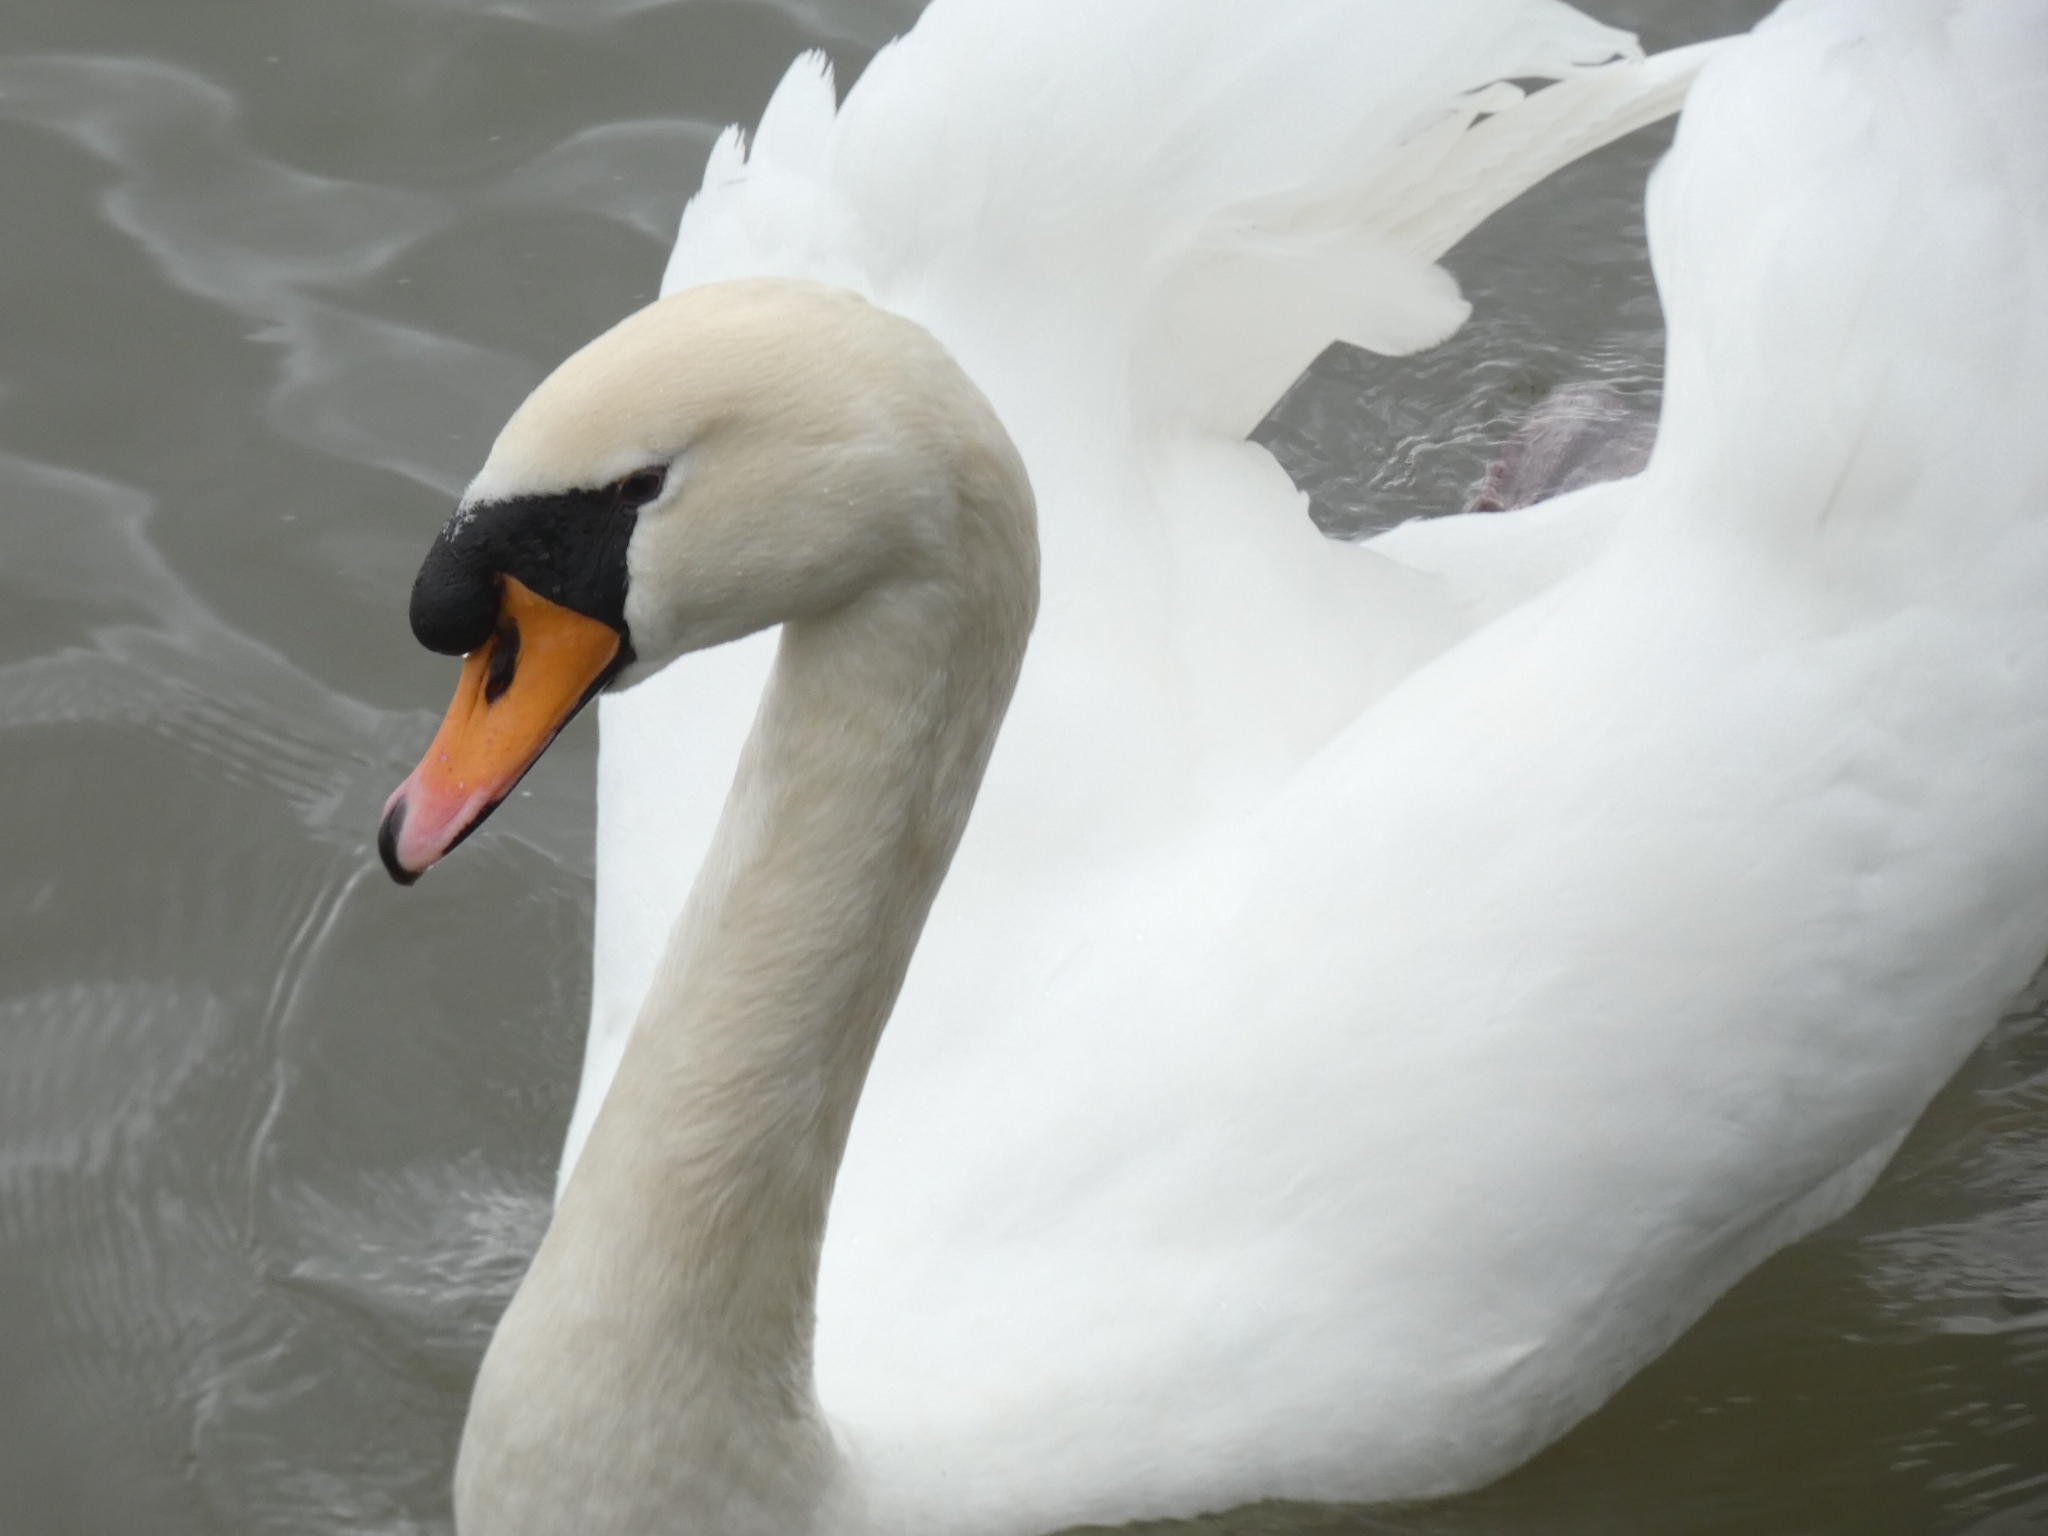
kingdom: Animalia
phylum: Chordata
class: Aves
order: Anseriformes
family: Anatidae
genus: Cygnus
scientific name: Cygnus olor
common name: Mute swan
